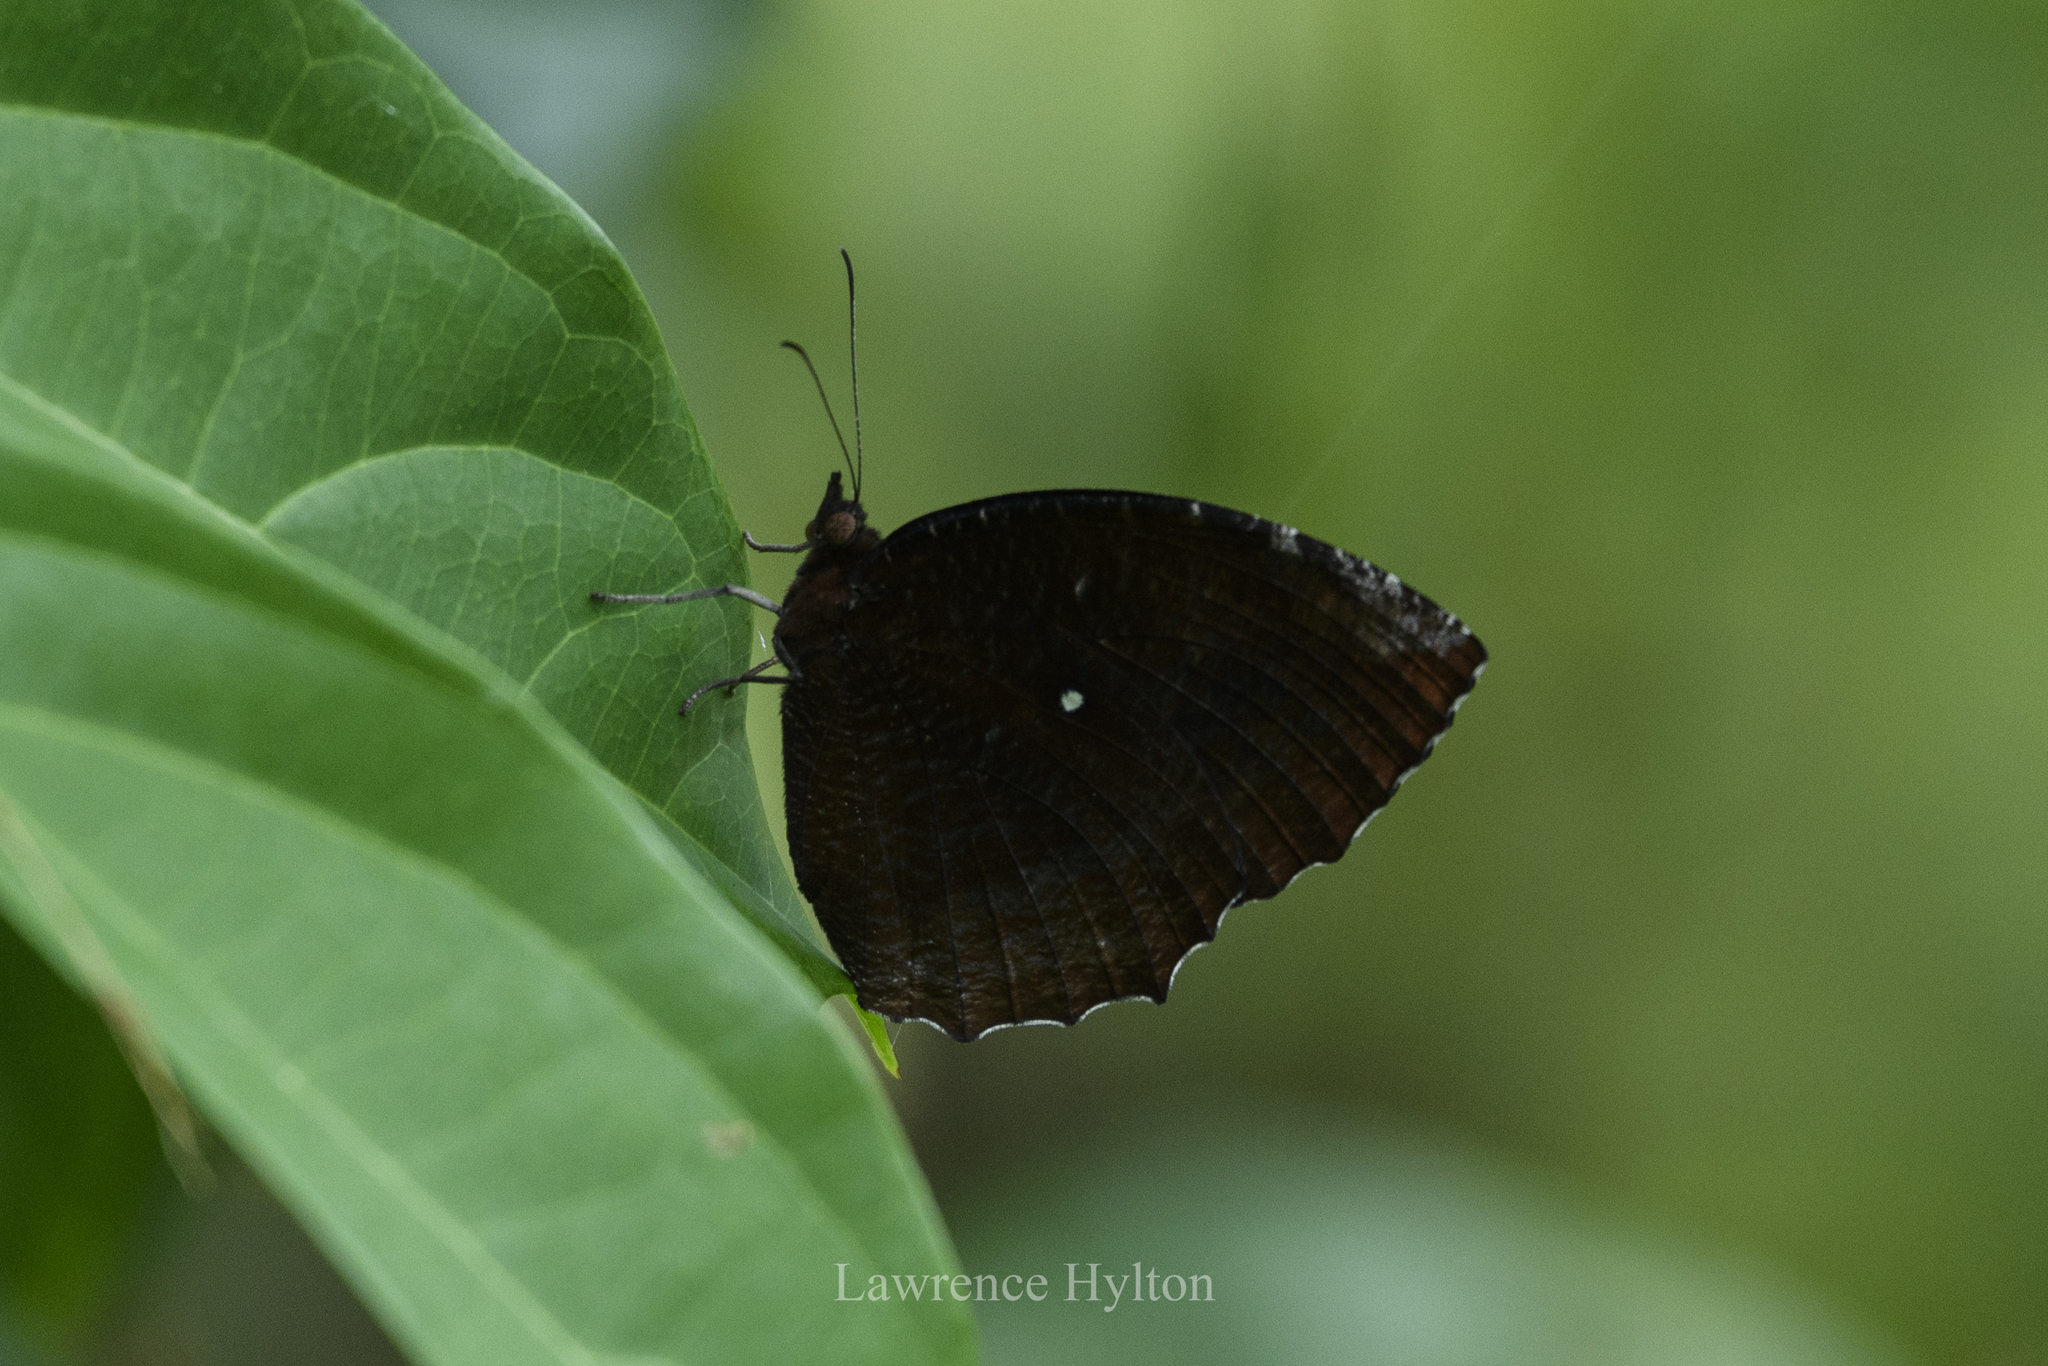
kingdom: Animalia
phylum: Arthropoda
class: Insecta
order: Lepidoptera
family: Nymphalidae
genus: Elymnias
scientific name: Elymnias hypermnestra
